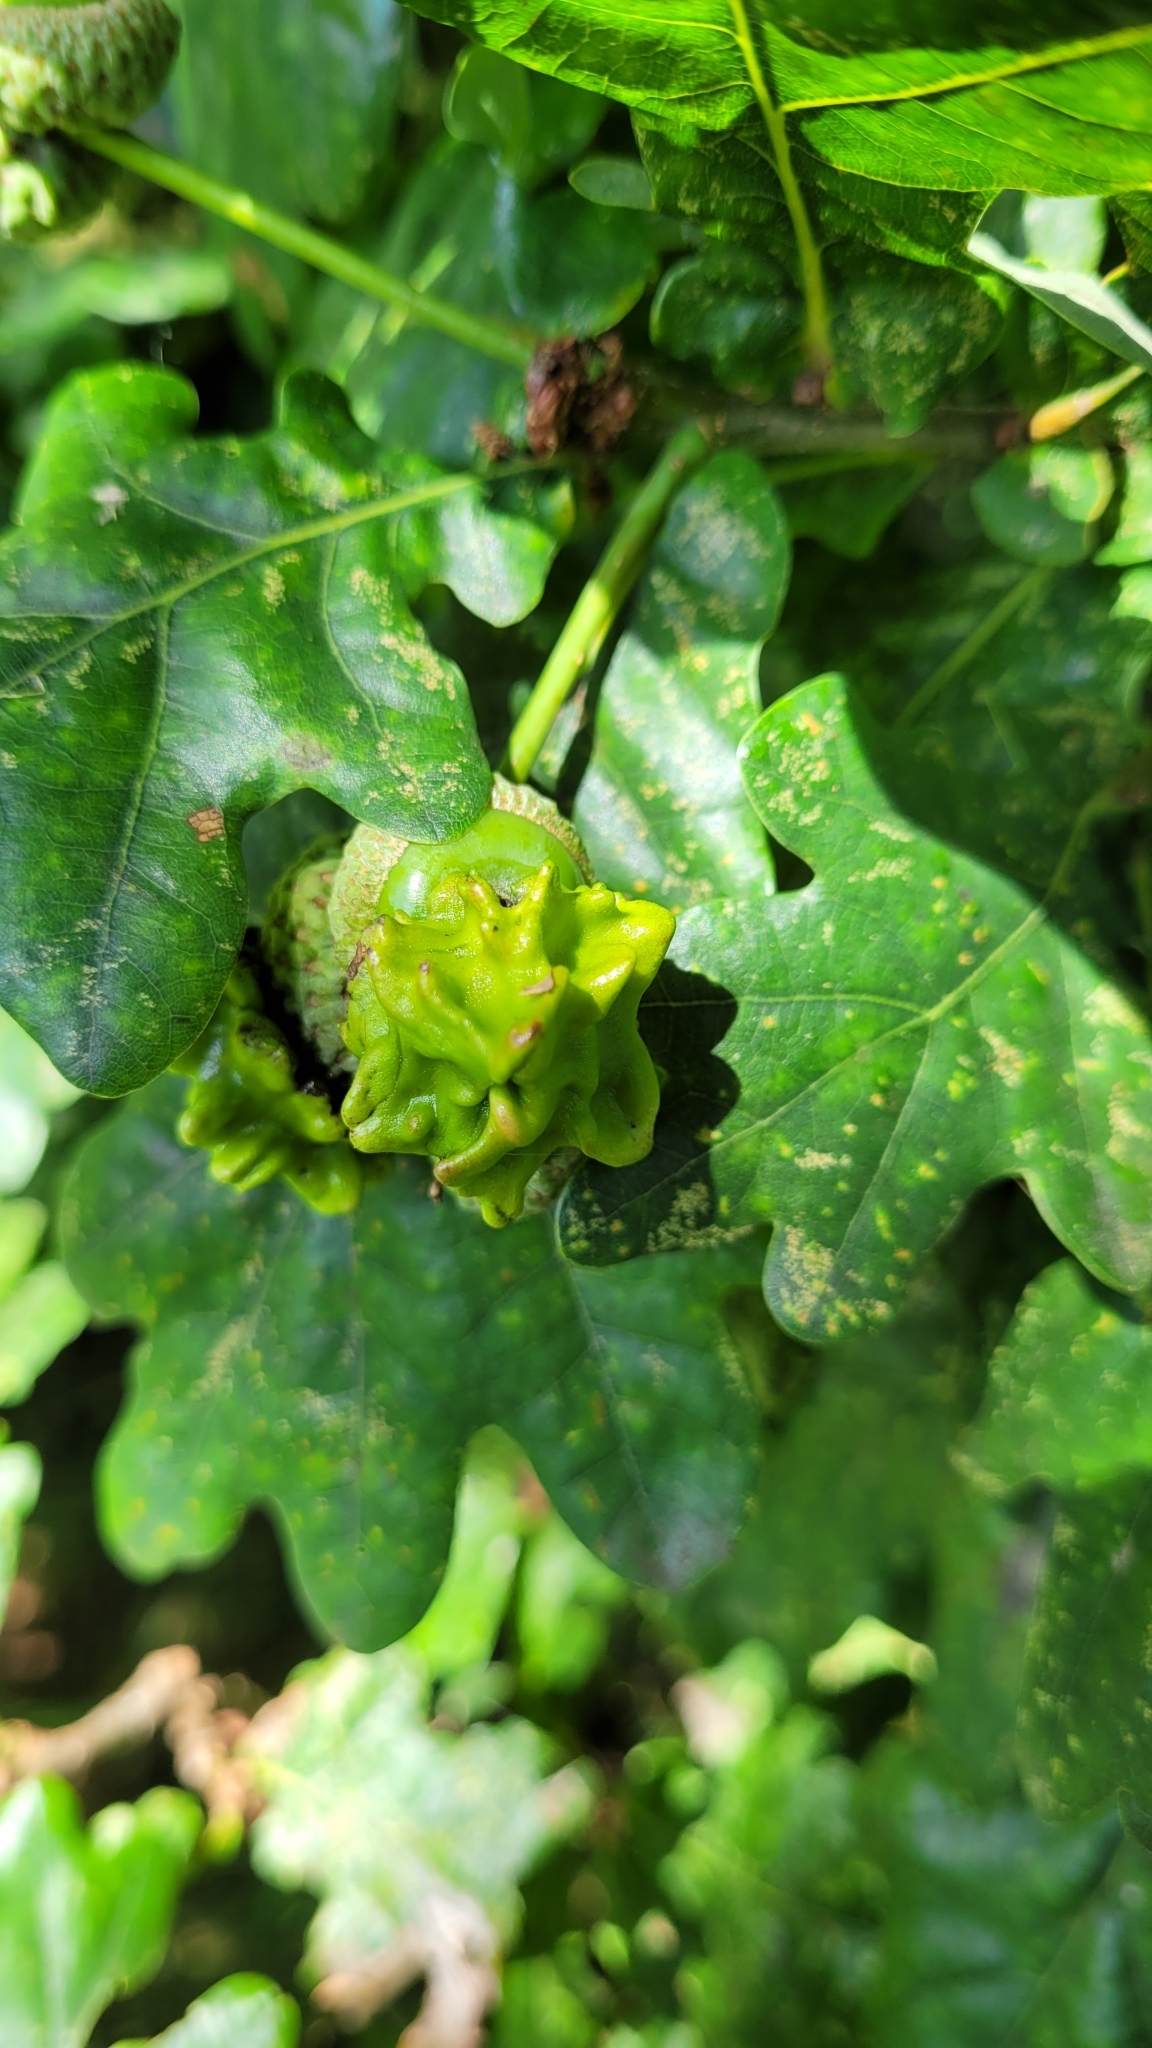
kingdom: Animalia
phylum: Arthropoda
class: Insecta
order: Hymenoptera
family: Cynipidae
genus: Andricus
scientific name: Andricus quercuscalicis
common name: Knopper gall
